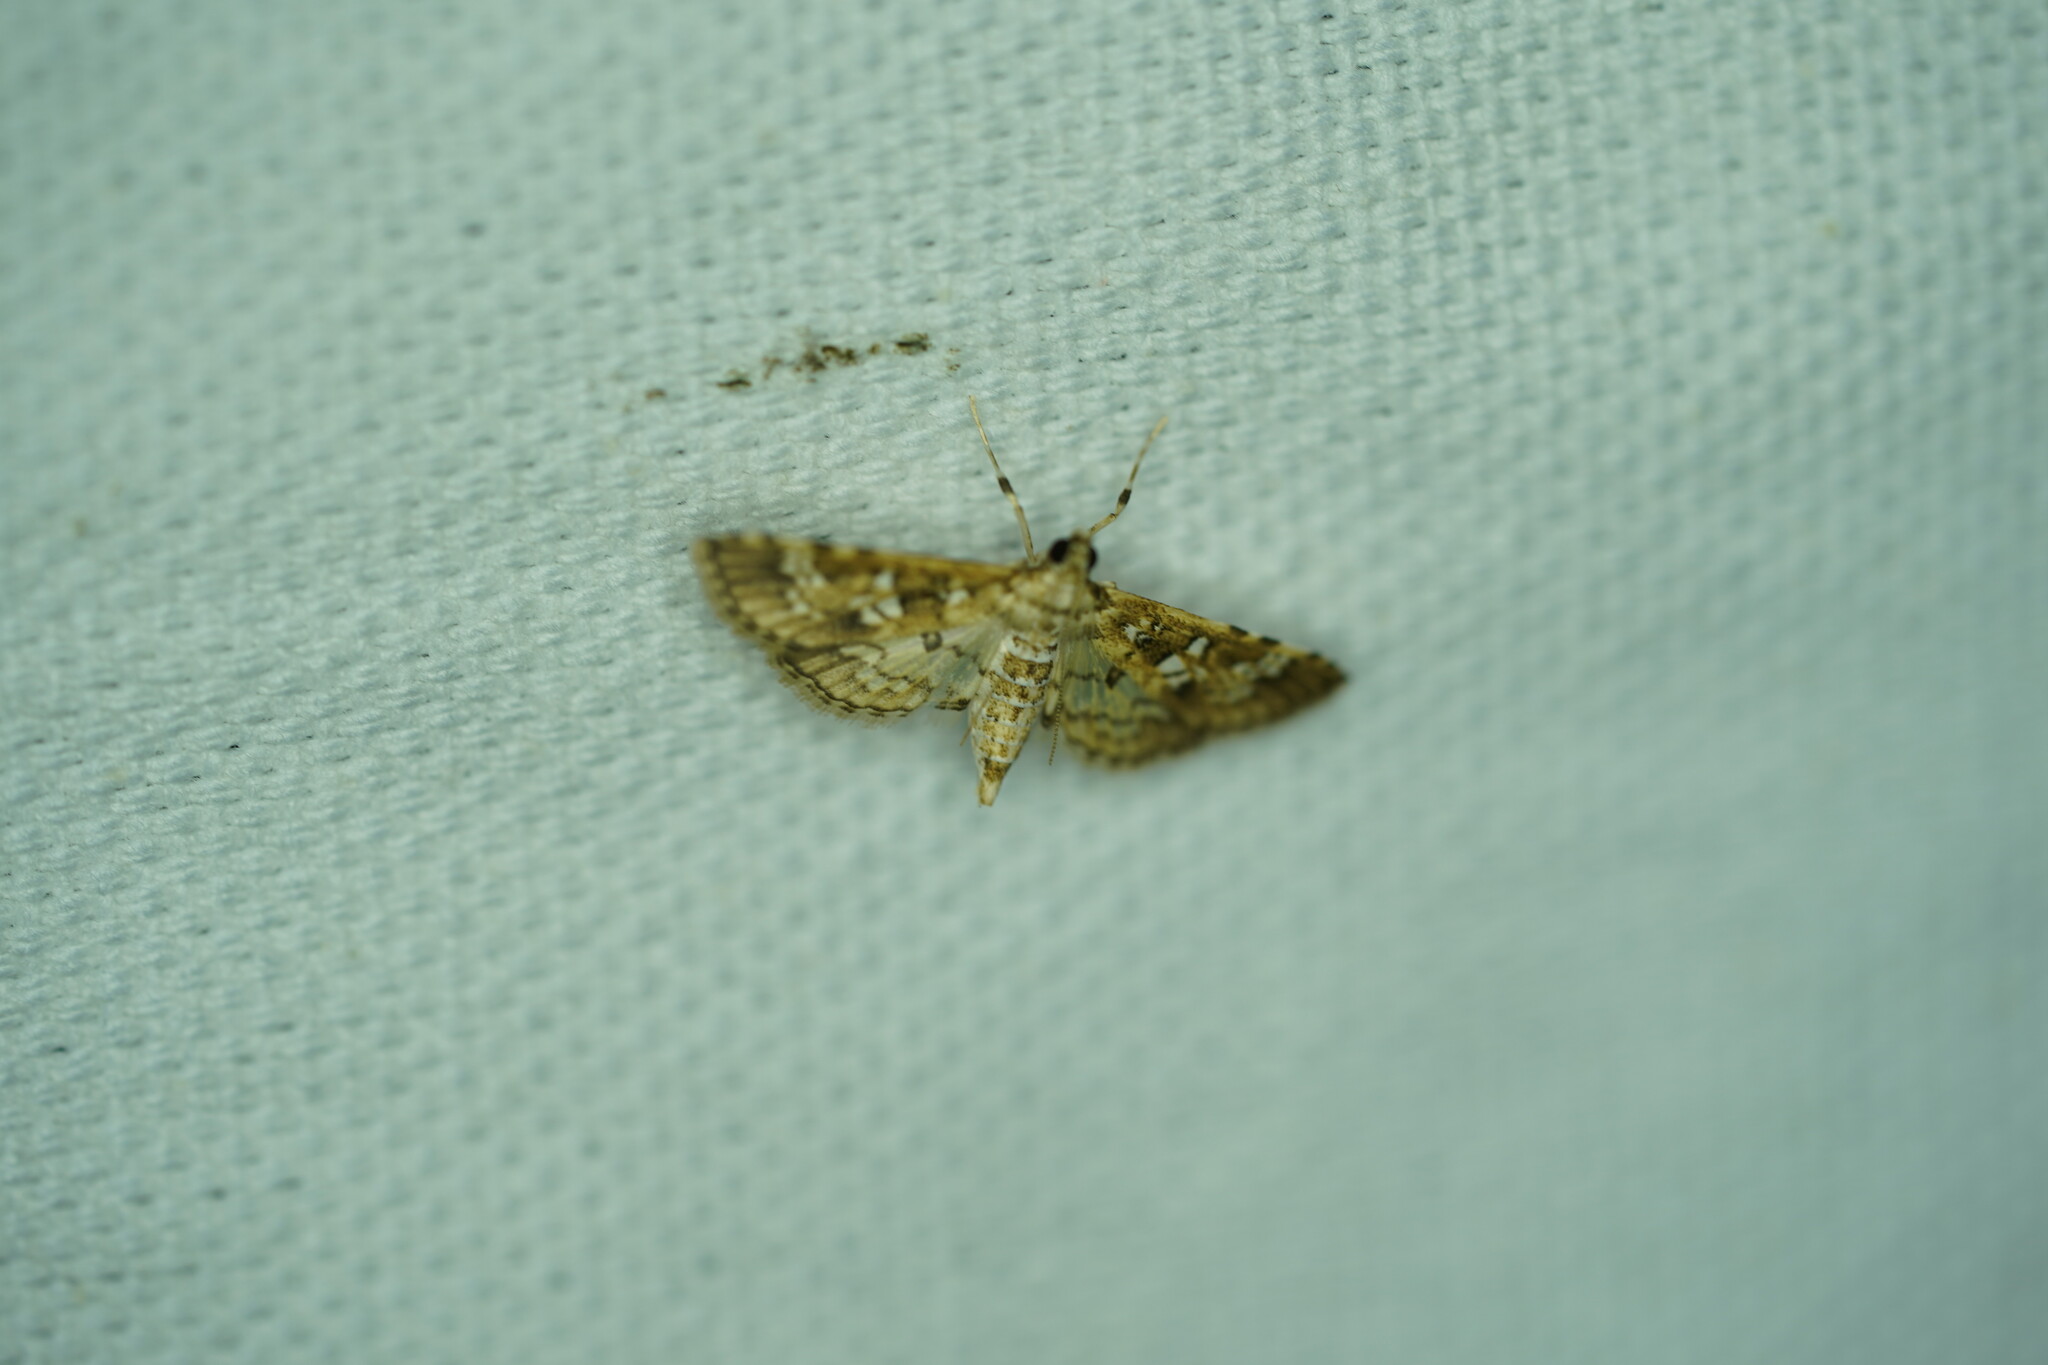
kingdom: Animalia
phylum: Arthropoda
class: Insecta
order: Lepidoptera
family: Crambidae
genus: Samea
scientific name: Samea multiplicalis
